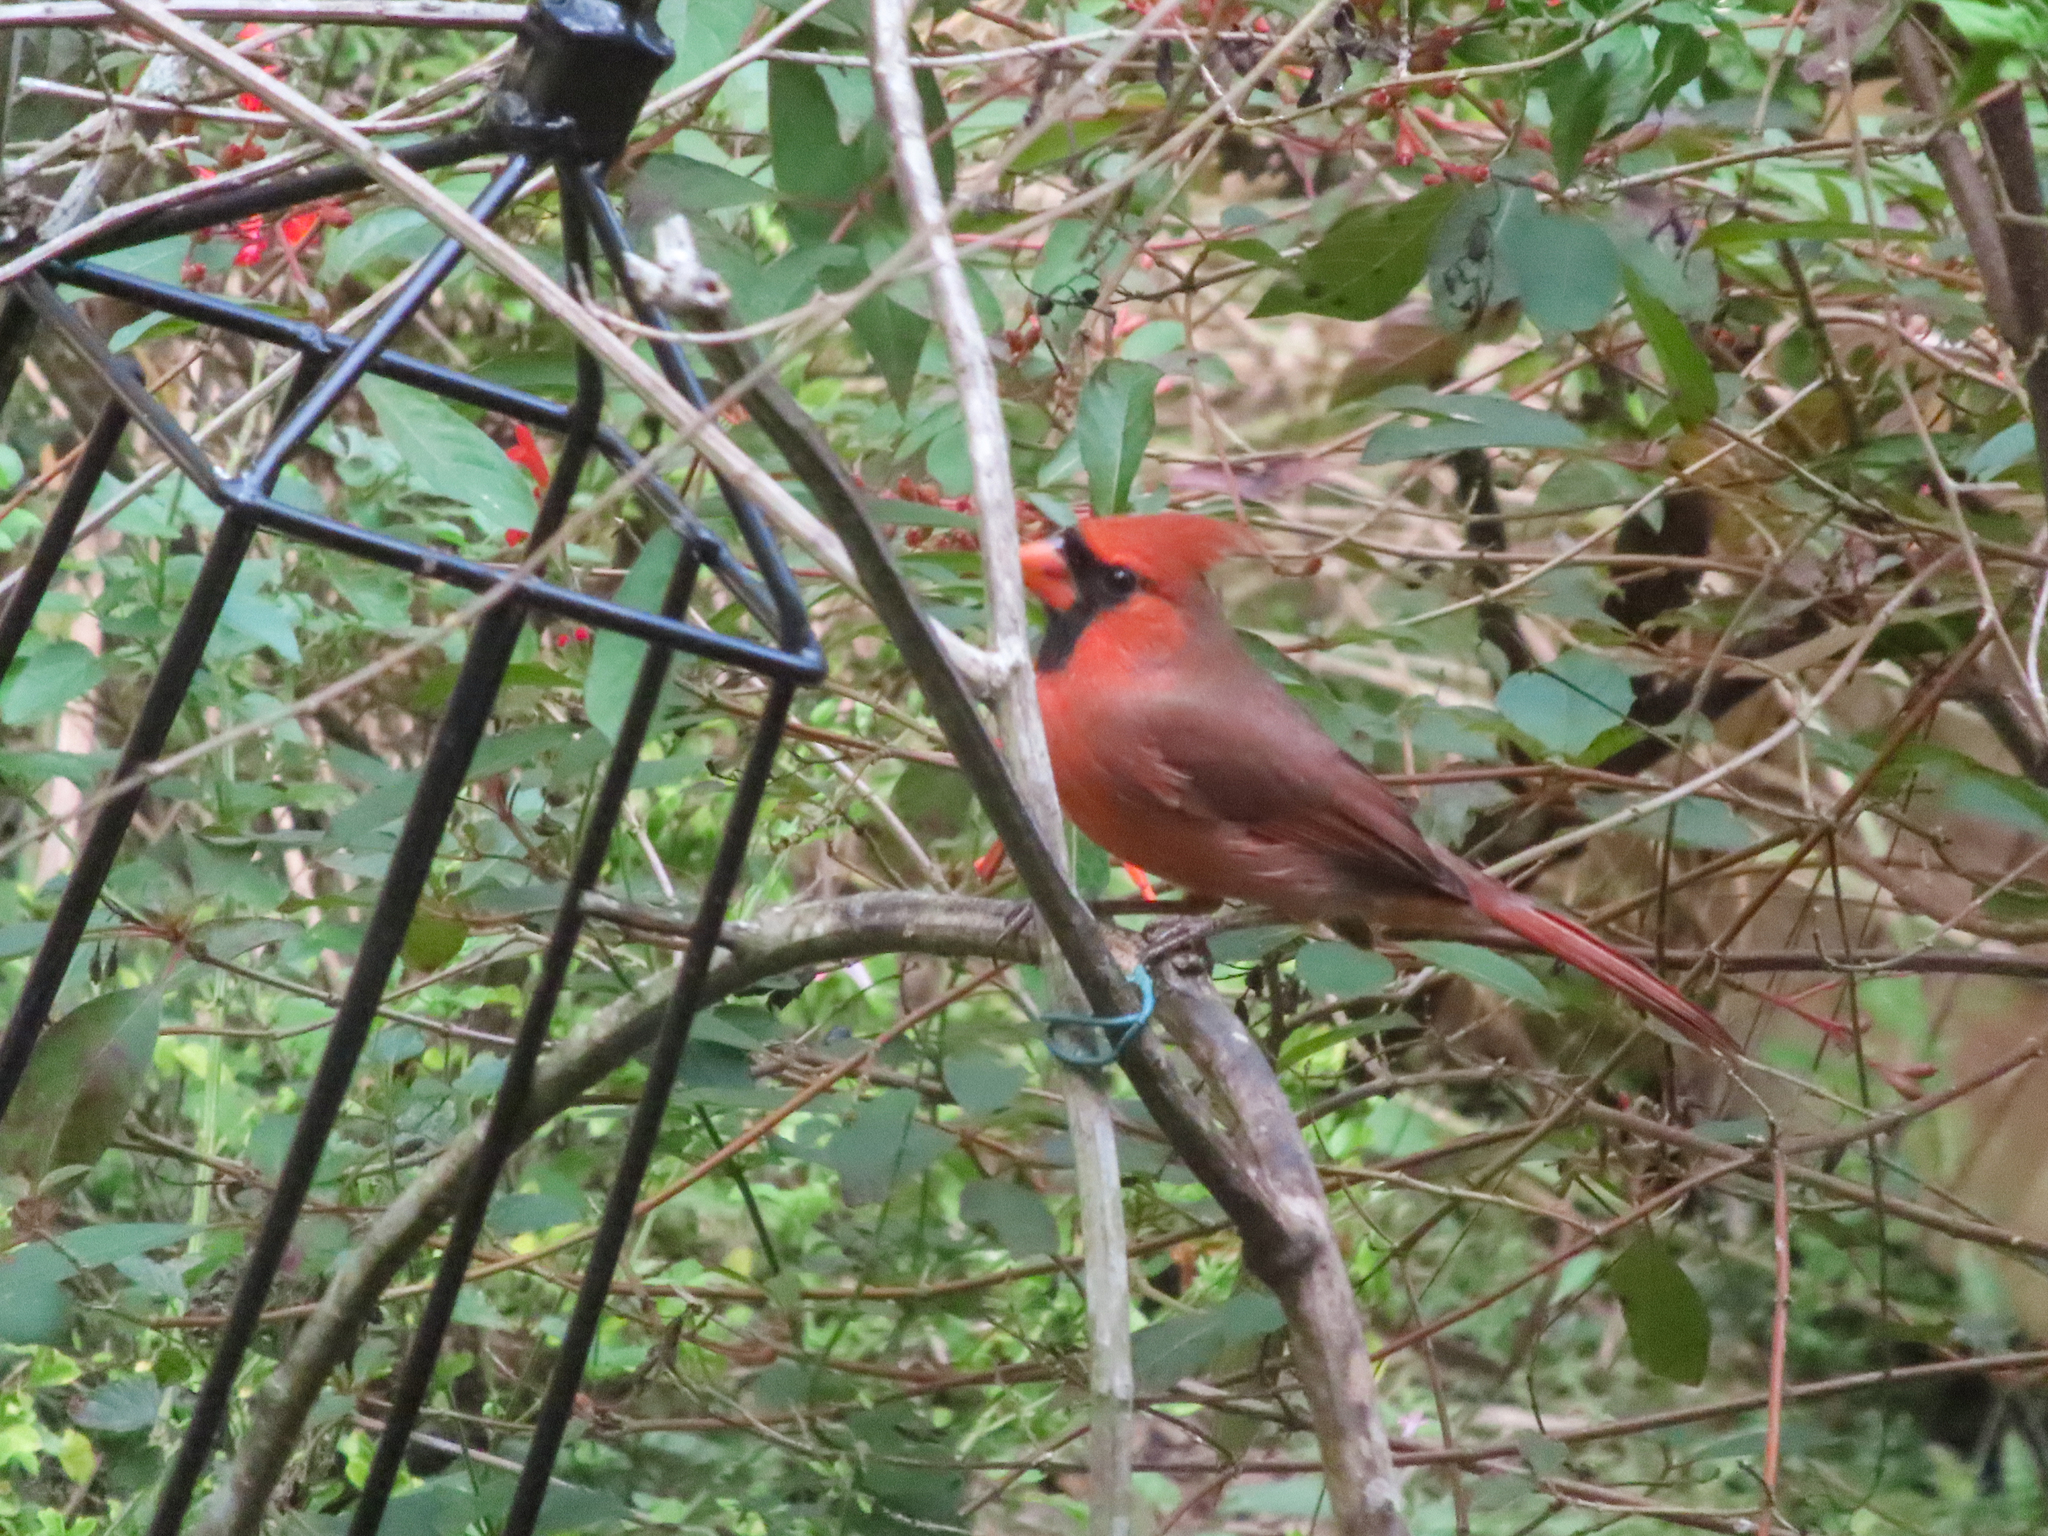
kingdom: Animalia
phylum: Chordata
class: Aves
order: Passeriformes
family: Cardinalidae
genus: Cardinalis
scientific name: Cardinalis cardinalis
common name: Northern cardinal
